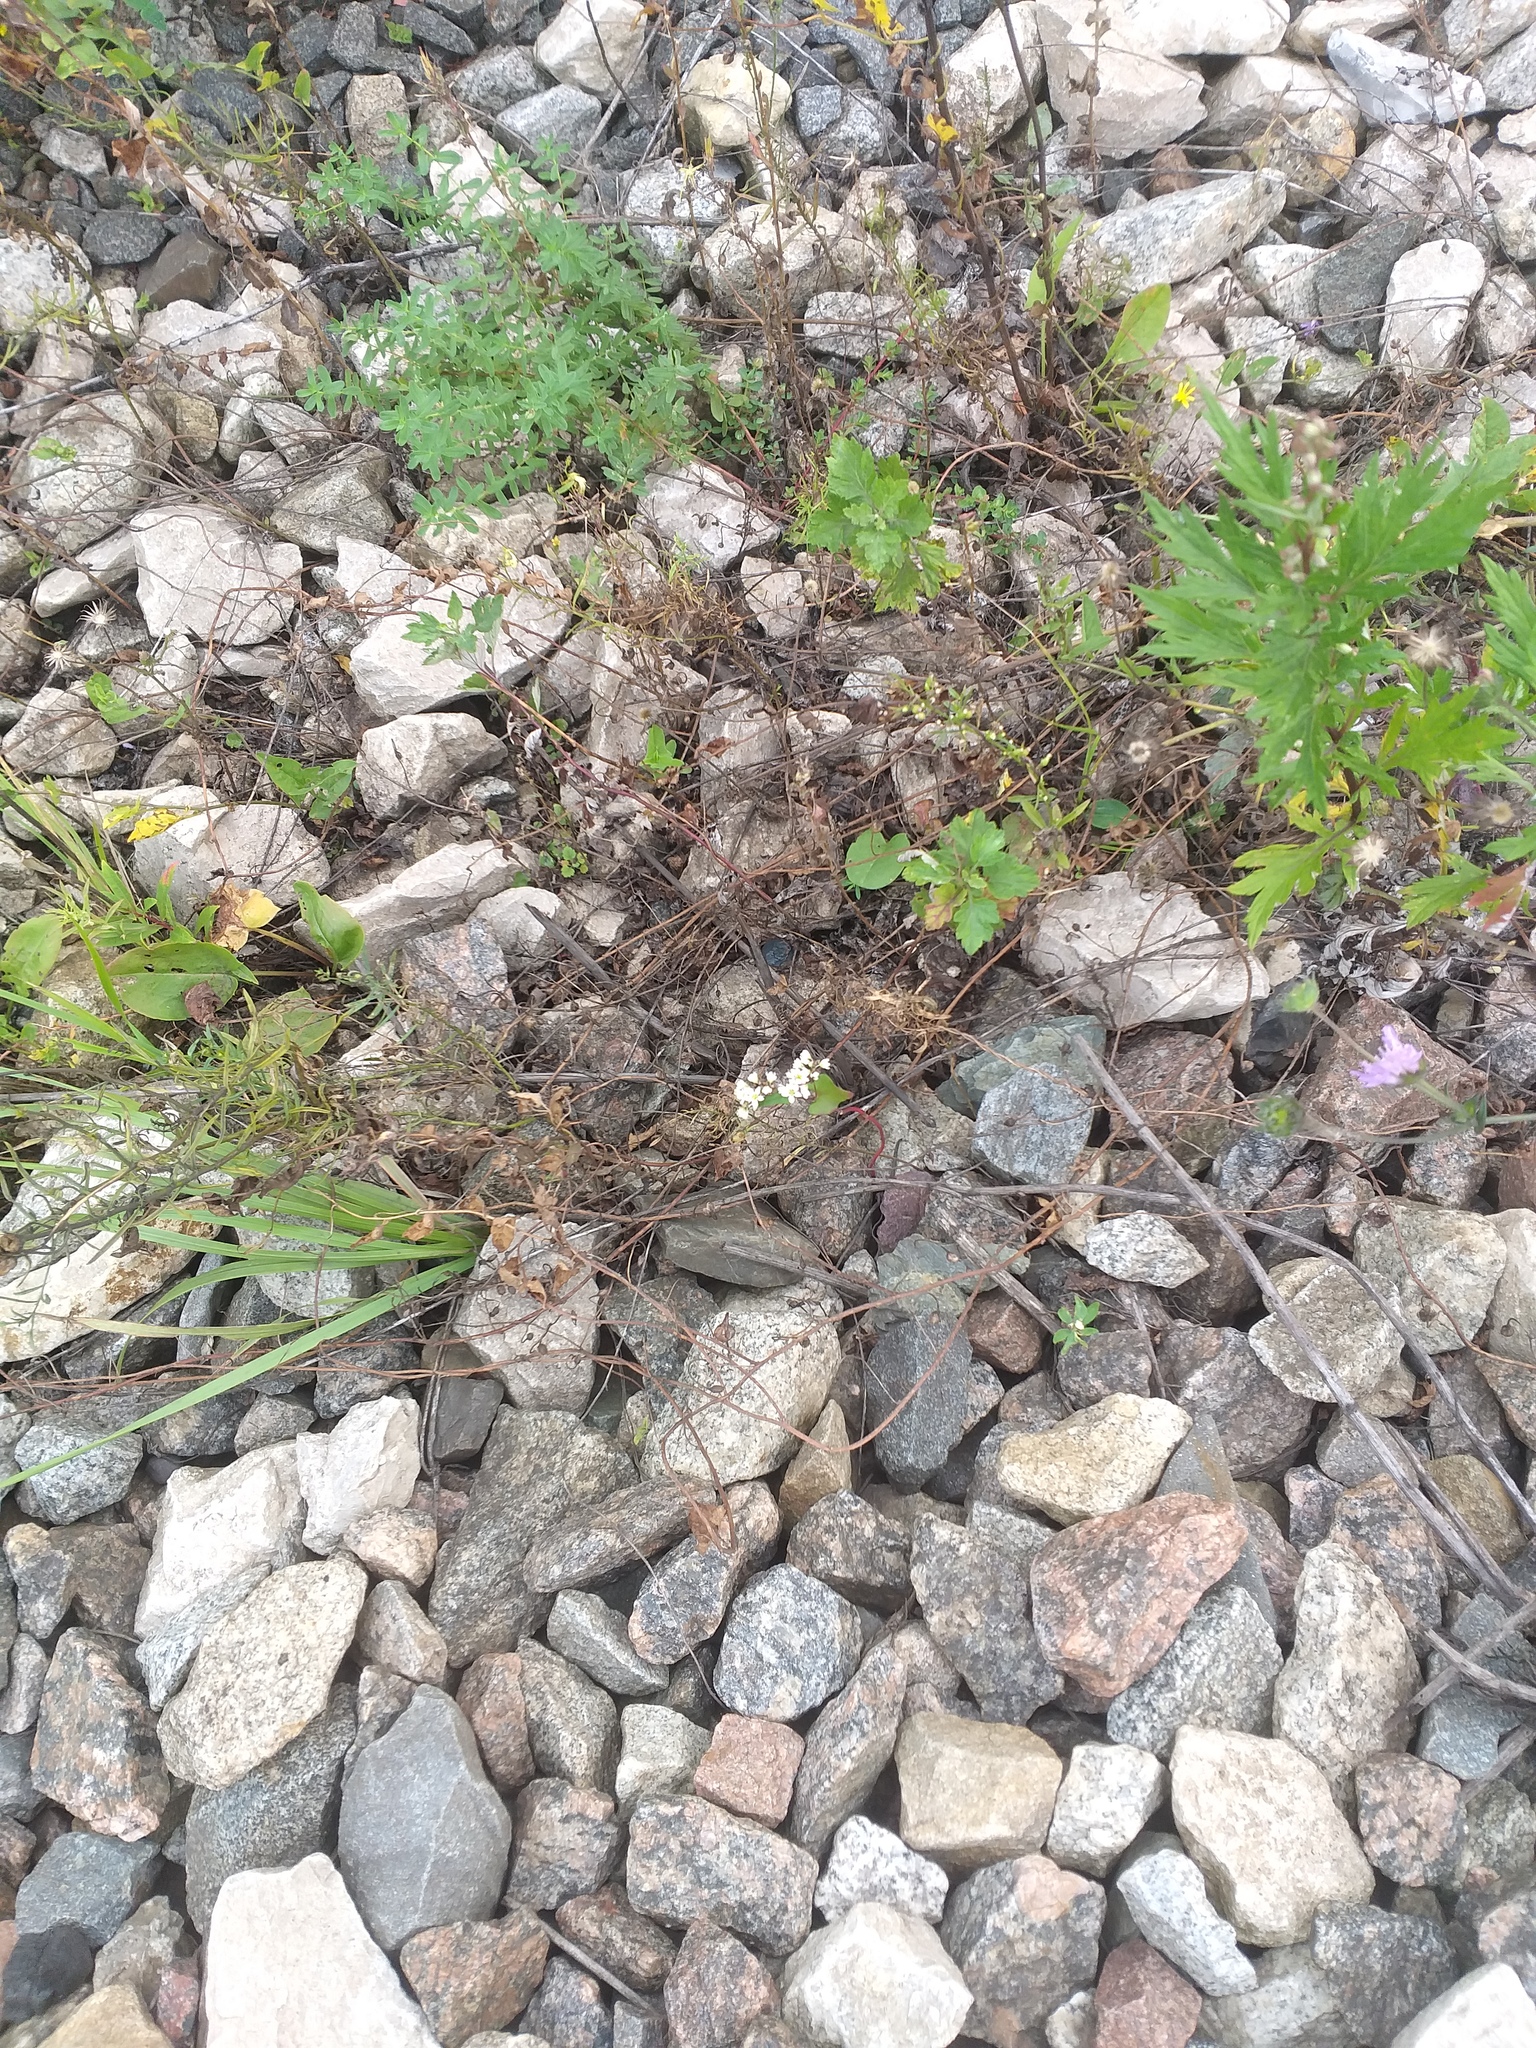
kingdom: Plantae
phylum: Tracheophyta
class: Magnoliopsida
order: Caryophyllales
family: Polygonaceae
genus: Fagopyrum
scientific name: Fagopyrum esculentum
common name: Buckwheat
